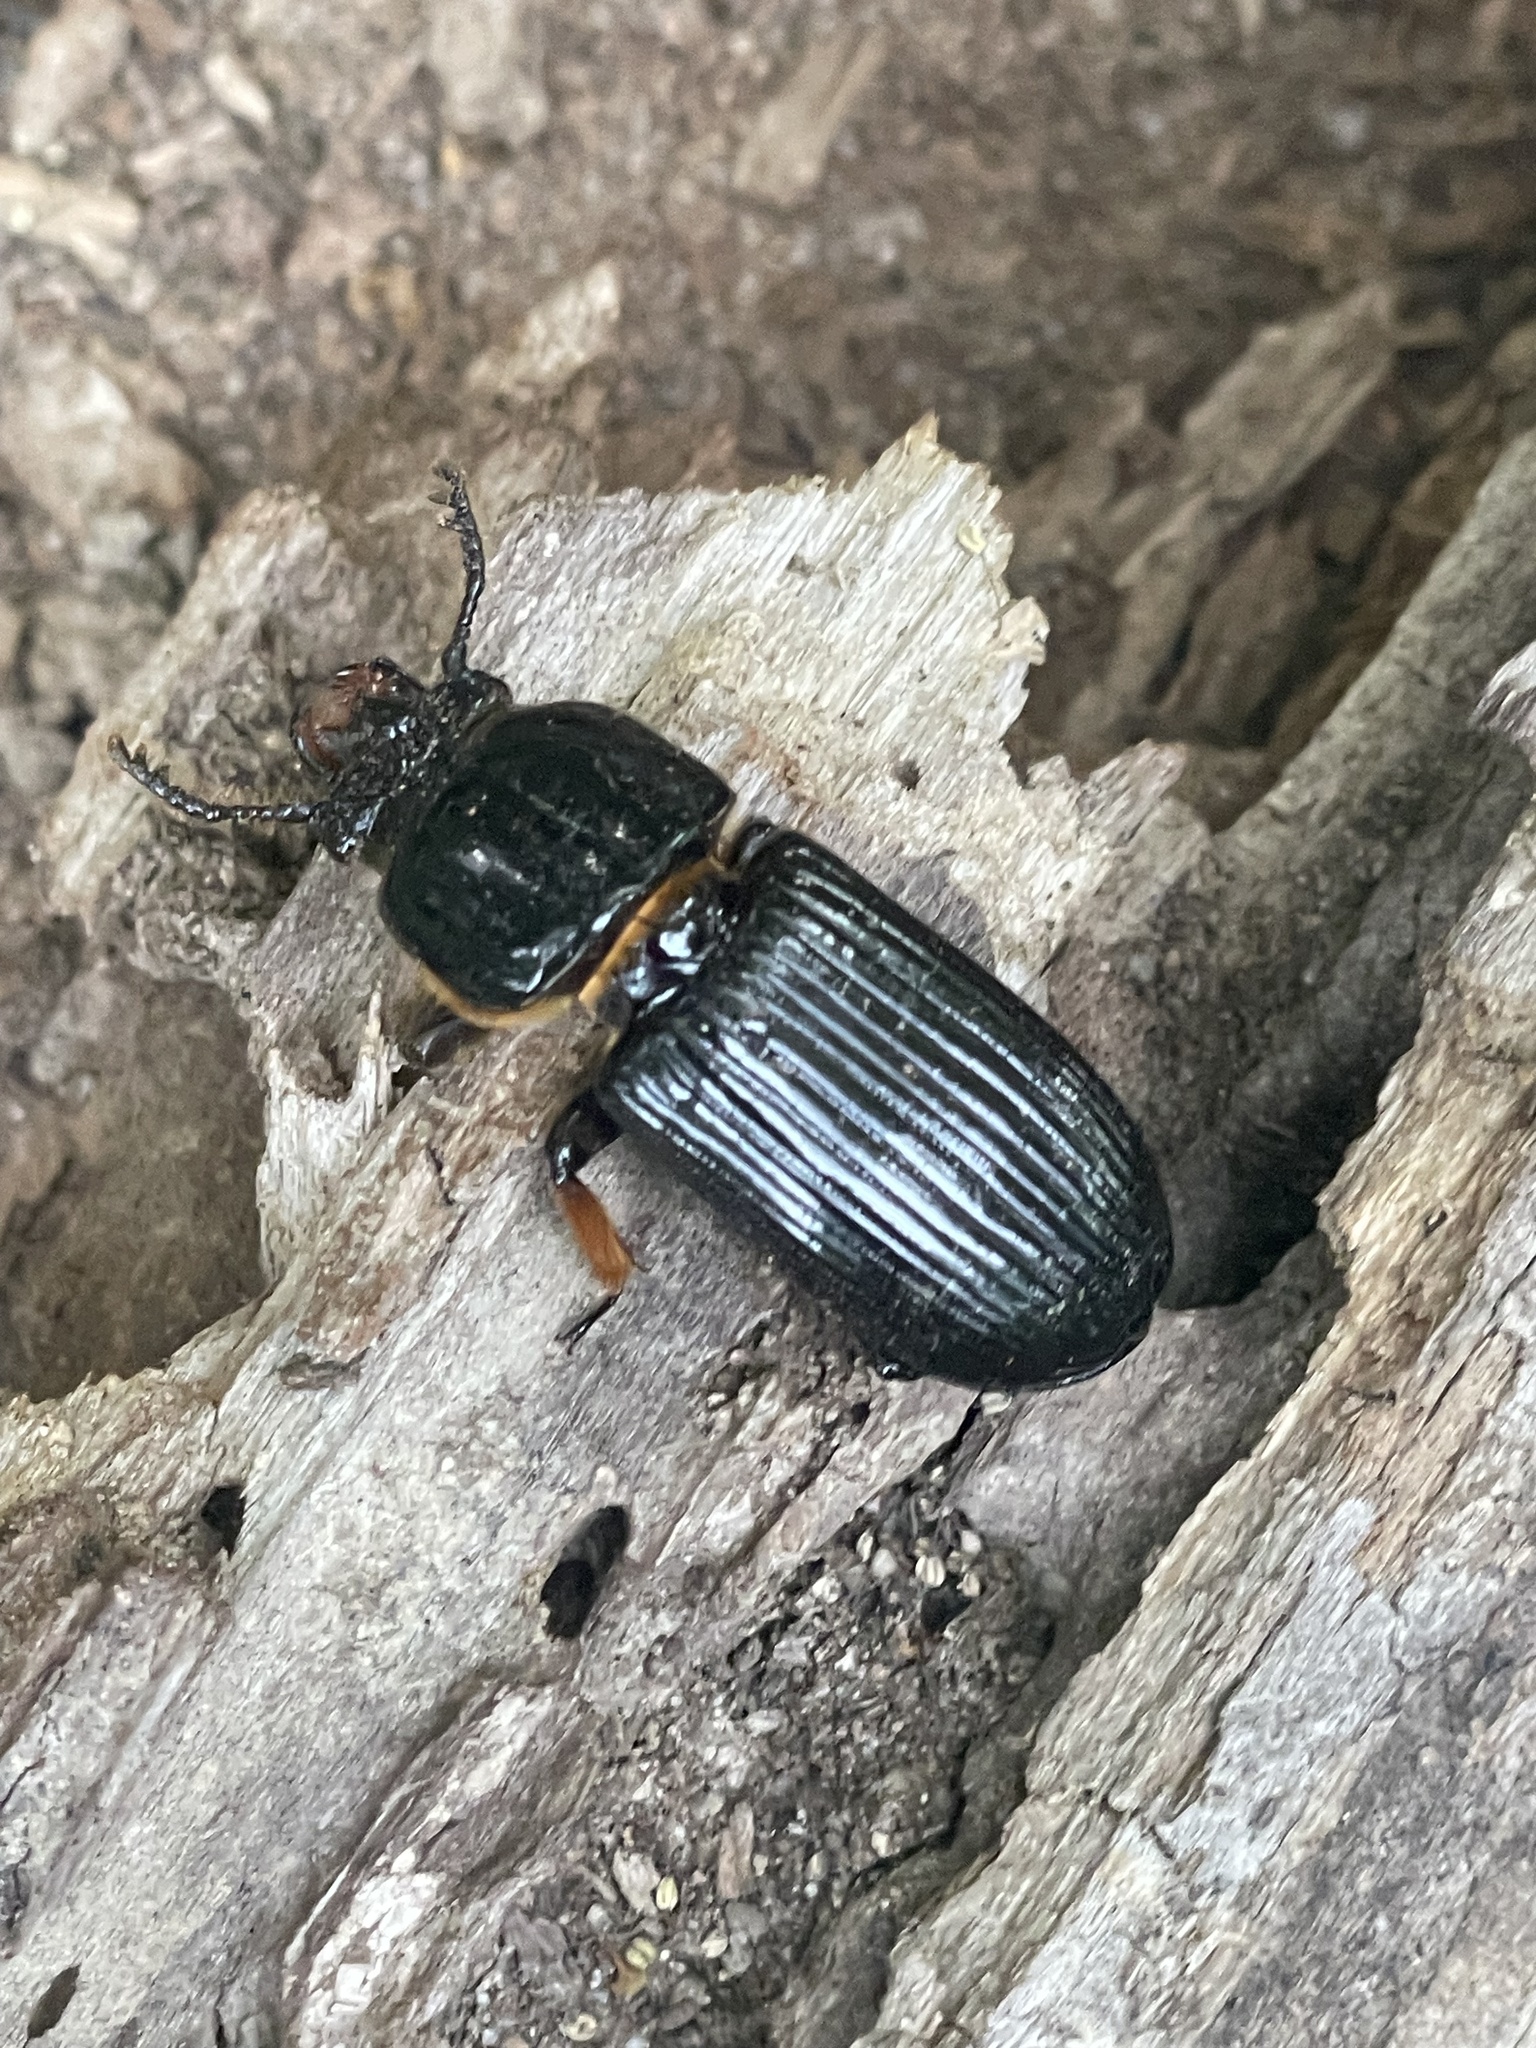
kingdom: Animalia
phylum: Arthropoda
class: Insecta
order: Coleoptera
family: Passalidae
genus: Odontotaenius
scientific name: Odontotaenius disjunctus
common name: Patent leather beetle
